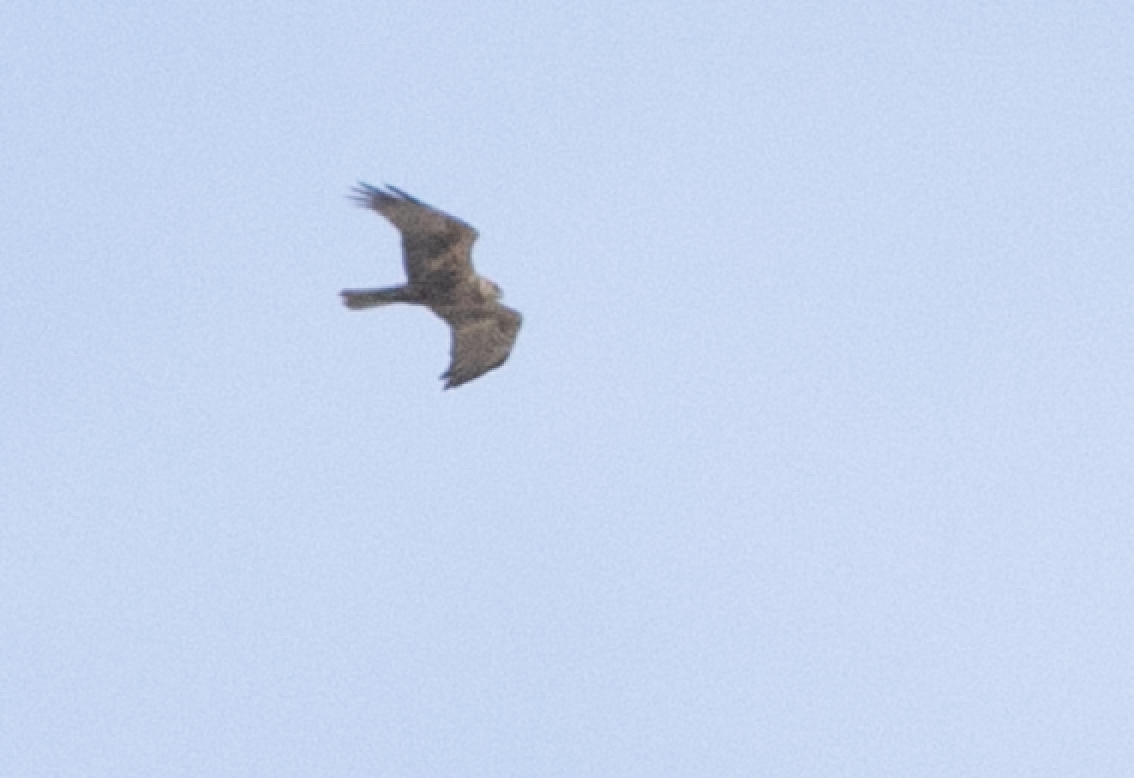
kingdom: Animalia
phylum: Chordata
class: Aves
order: Accipitriformes
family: Accipitridae
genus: Circus
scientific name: Circus aeruginosus
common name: Western marsh harrier
